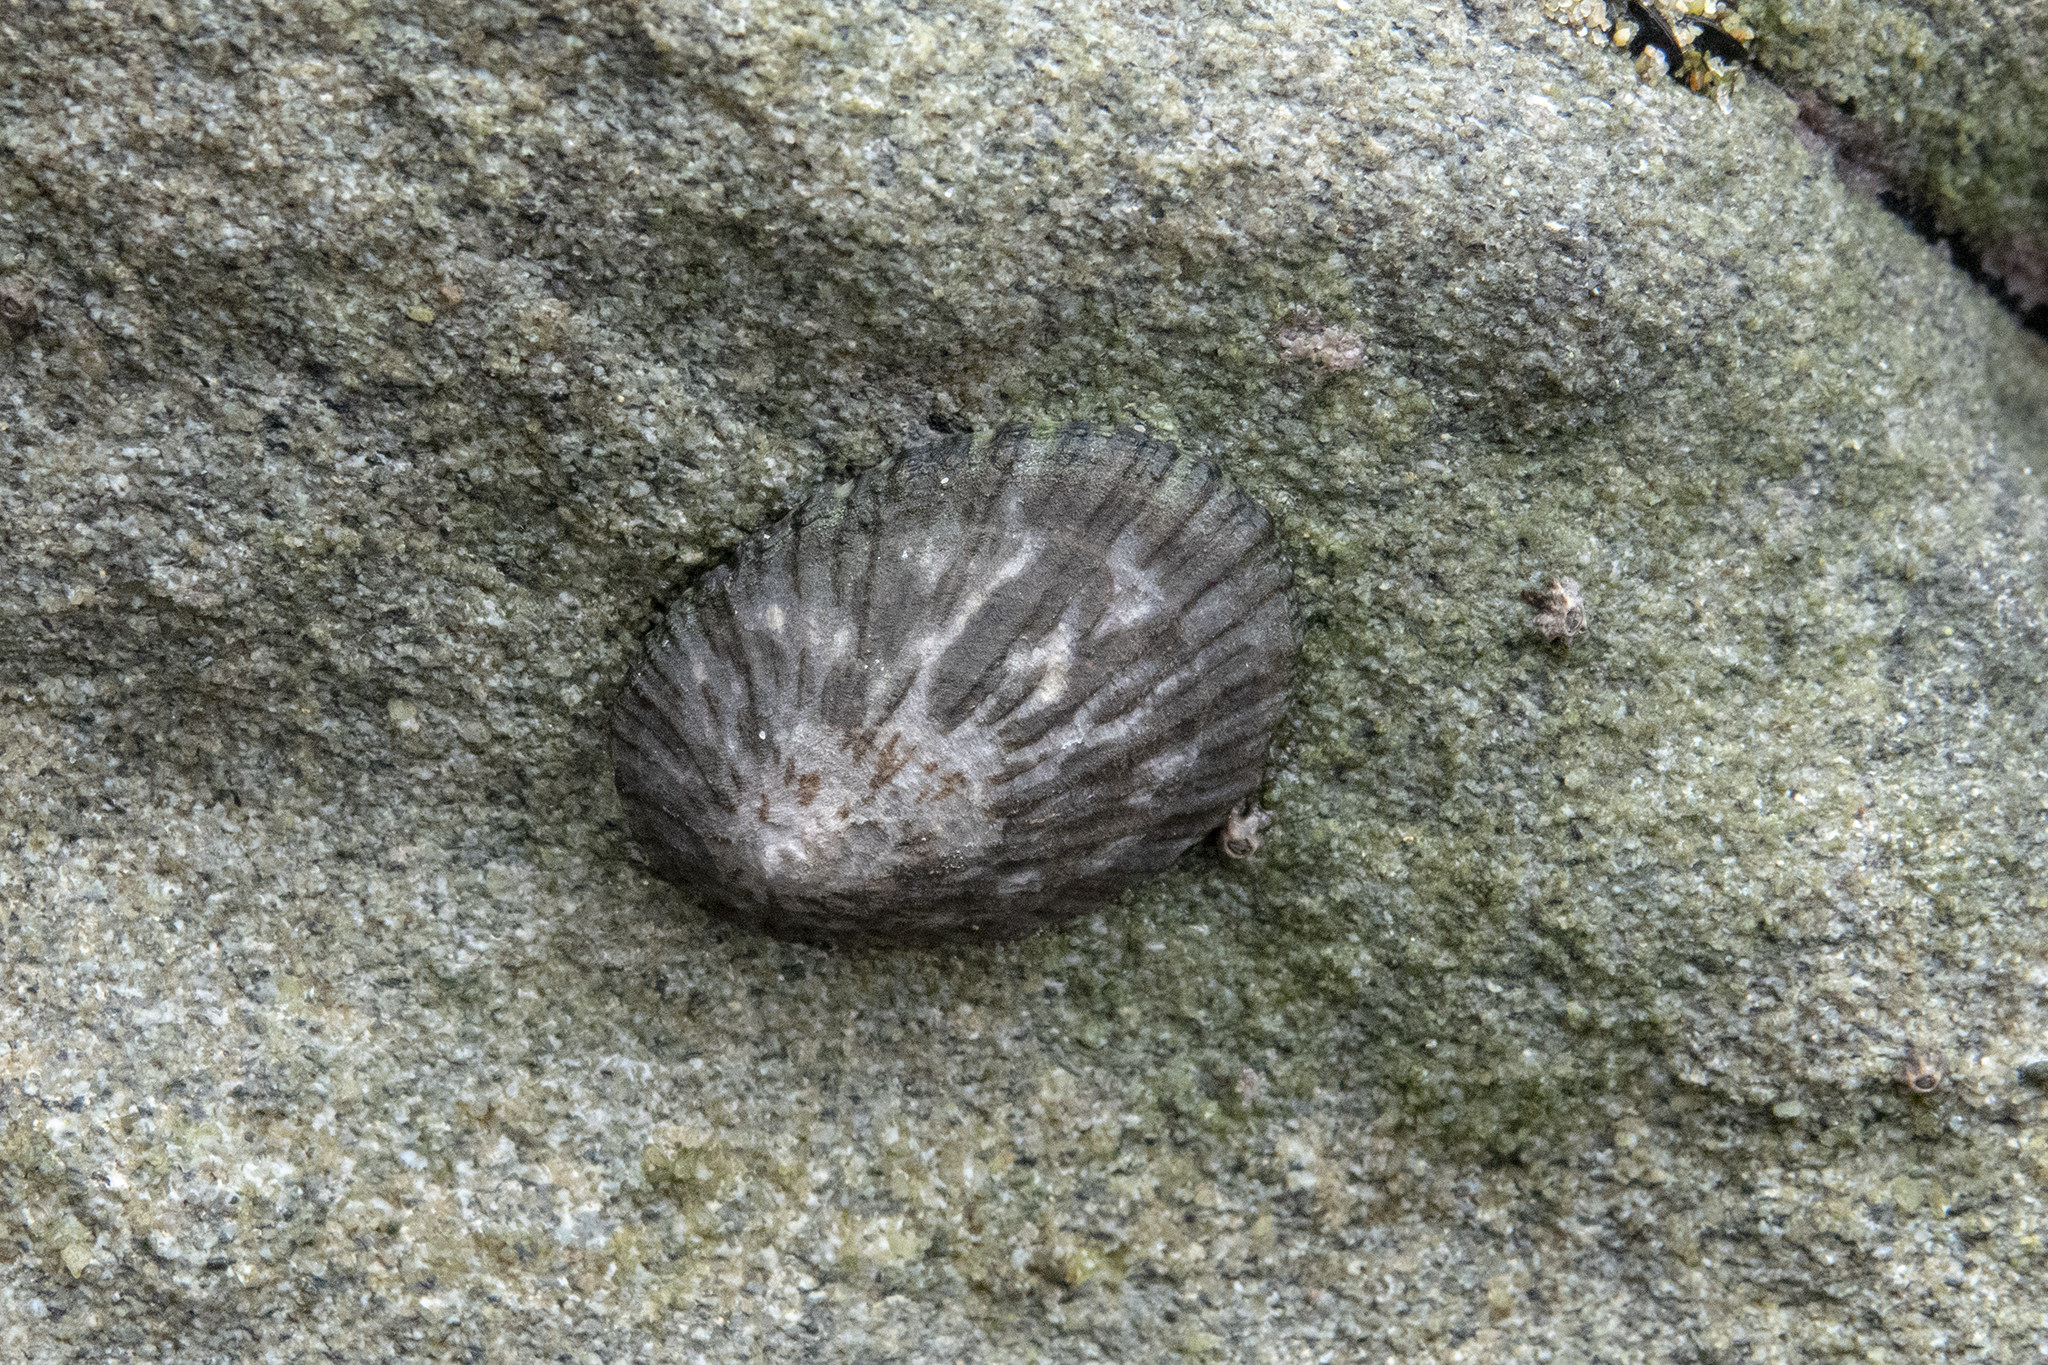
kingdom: Animalia
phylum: Mollusca
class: Gastropoda
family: Nacellidae
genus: Cellana
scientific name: Cellana radians
